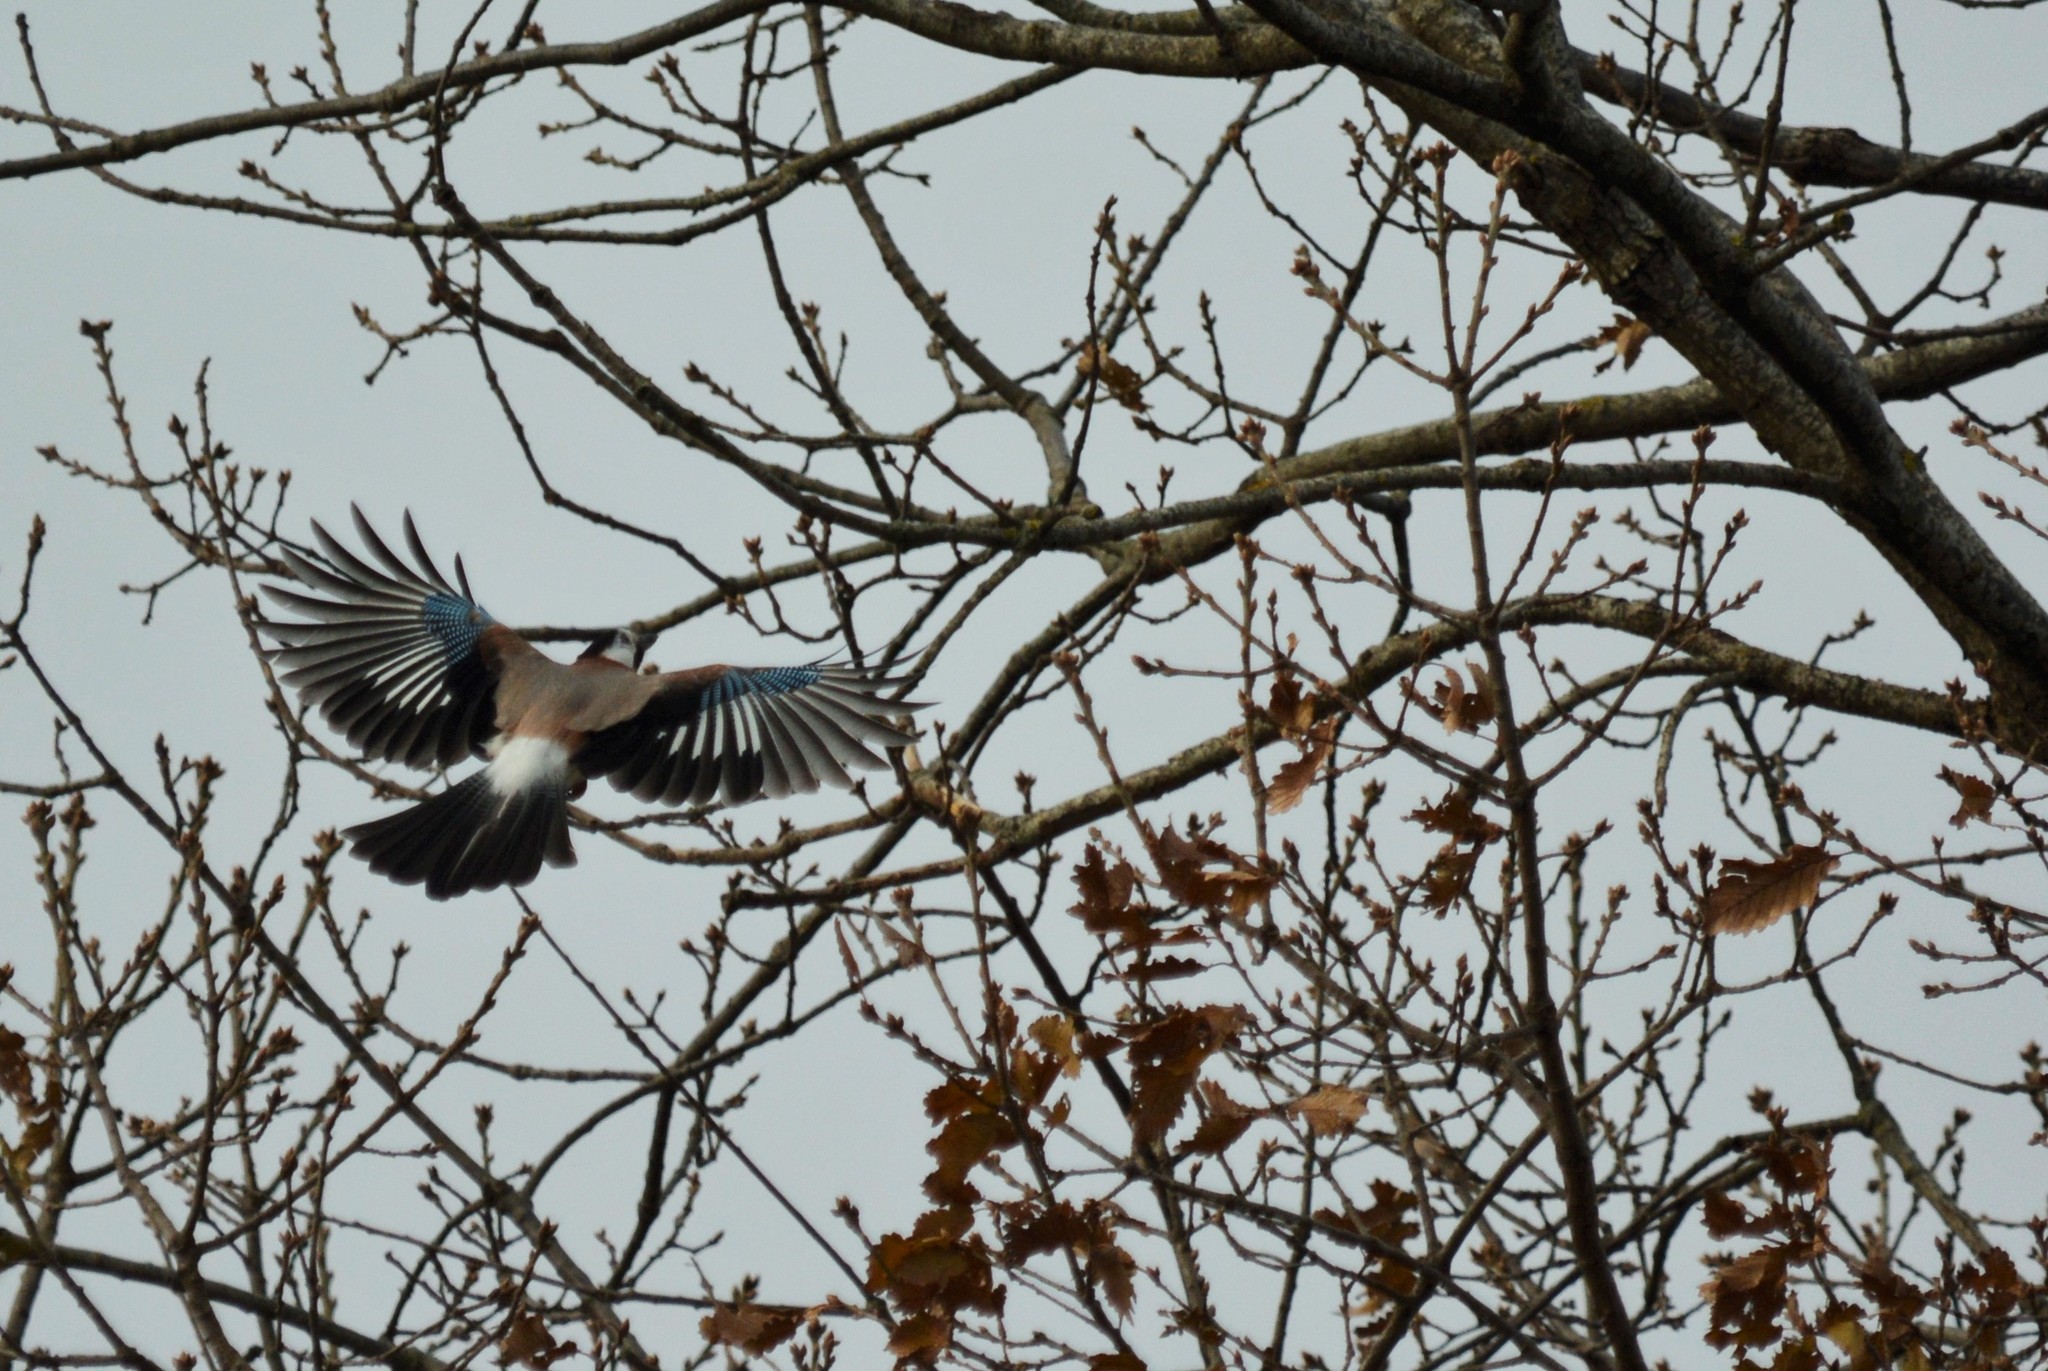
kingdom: Animalia
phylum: Chordata
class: Aves
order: Passeriformes
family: Corvidae
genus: Garrulus
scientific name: Garrulus glandarius
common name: Eurasian jay
